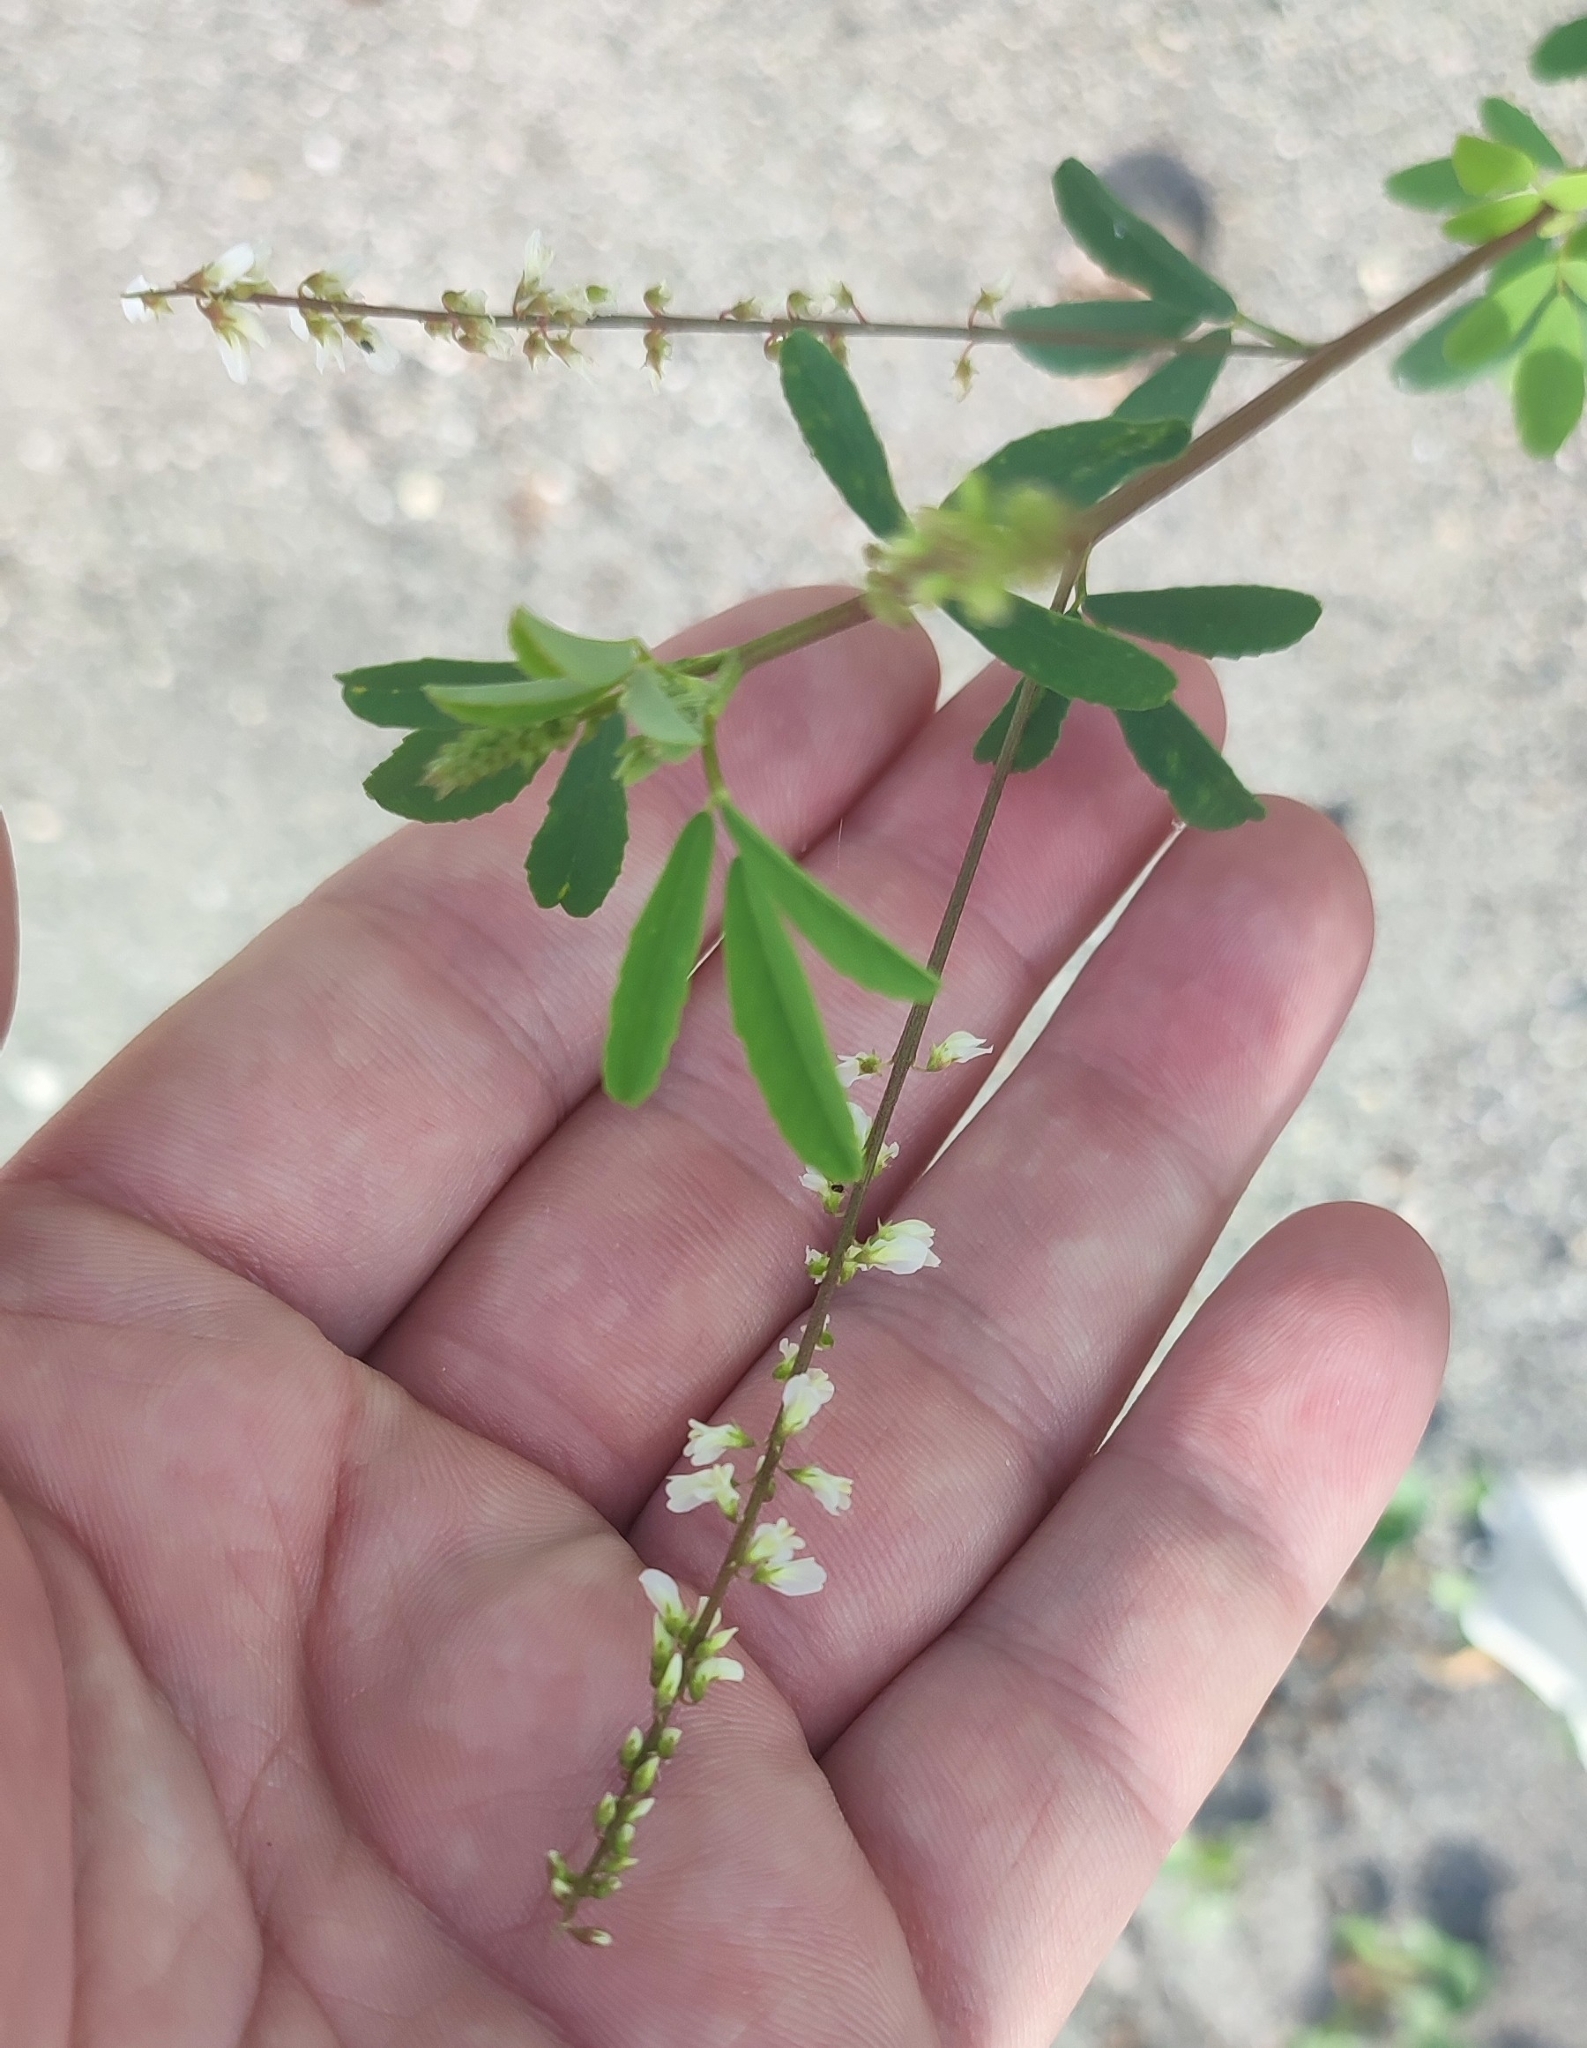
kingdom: Plantae
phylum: Tracheophyta
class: Magnoliopsida
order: Fabales
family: Fabaceae
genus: Melilotus
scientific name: Melilotus albus
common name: White melilot
